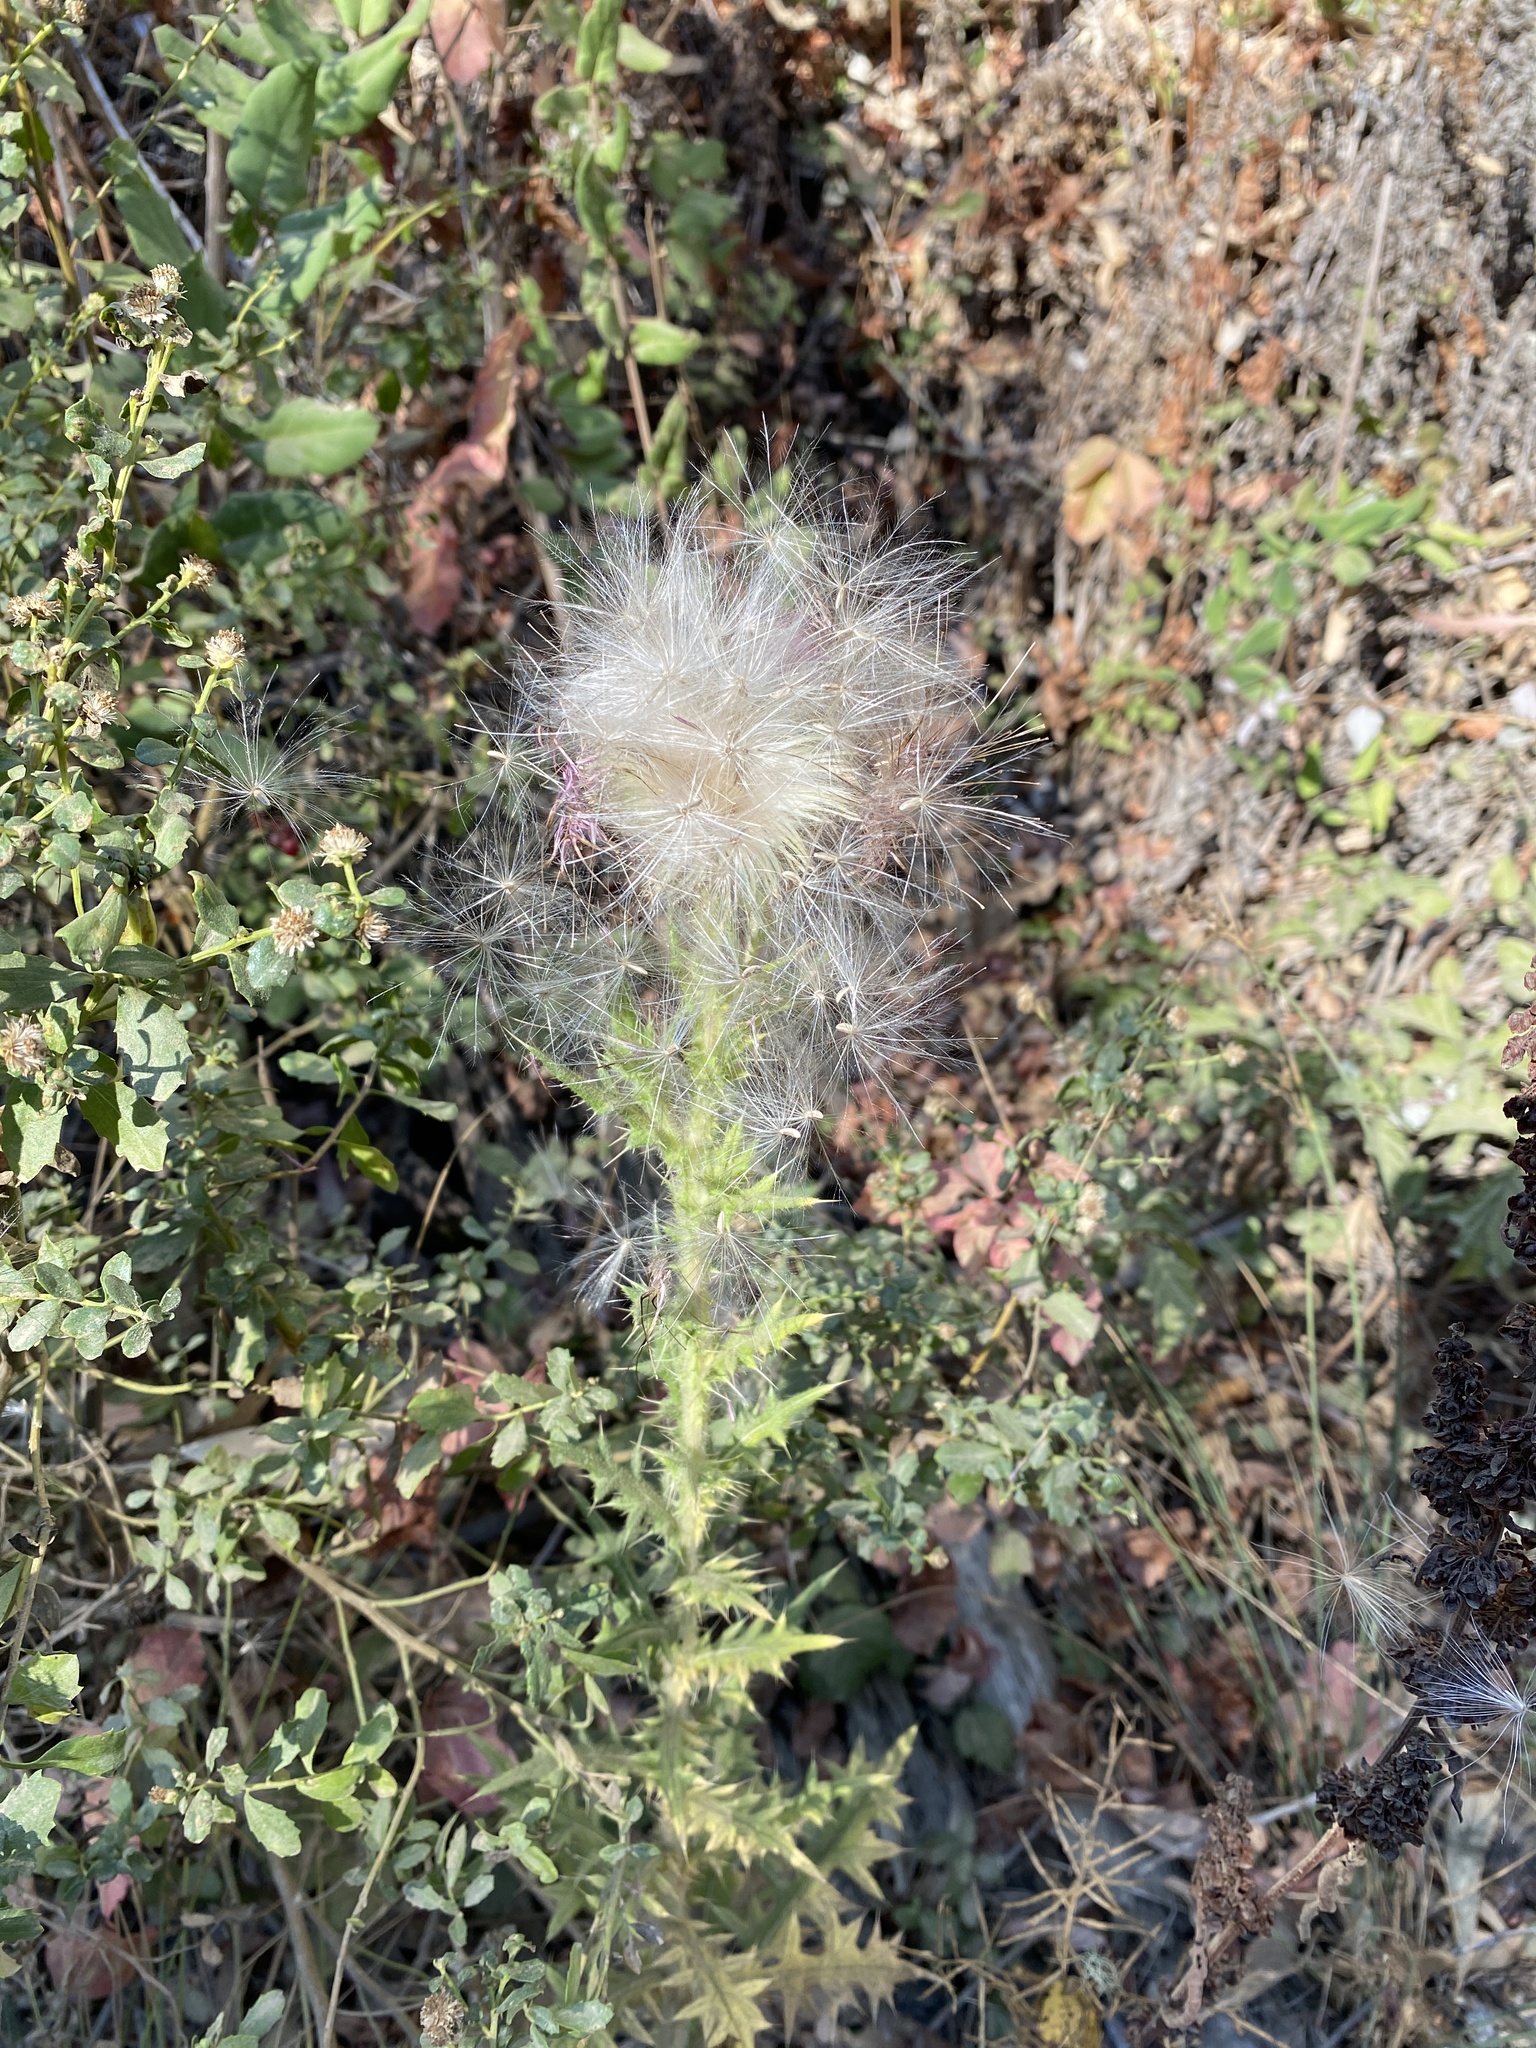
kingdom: Plantae
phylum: Tracheophyta
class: Magnoliopsida
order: Asterales
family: Asteraceae
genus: Cirsium
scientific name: Cirsium vulgare
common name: Bull thistle
